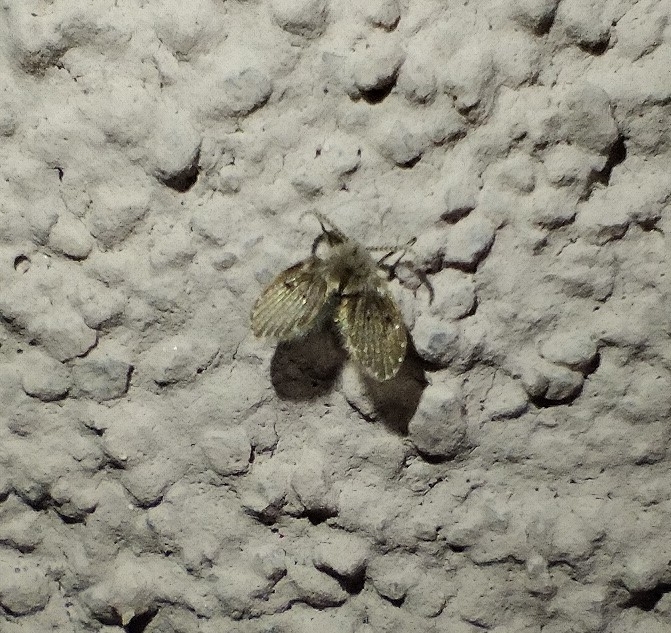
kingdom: Animalia
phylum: Arthropoda
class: Insecta
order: Diptera
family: Psychodidae
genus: Clogmia
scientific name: Clogmia albipunctatus
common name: White-spotted moth fly
